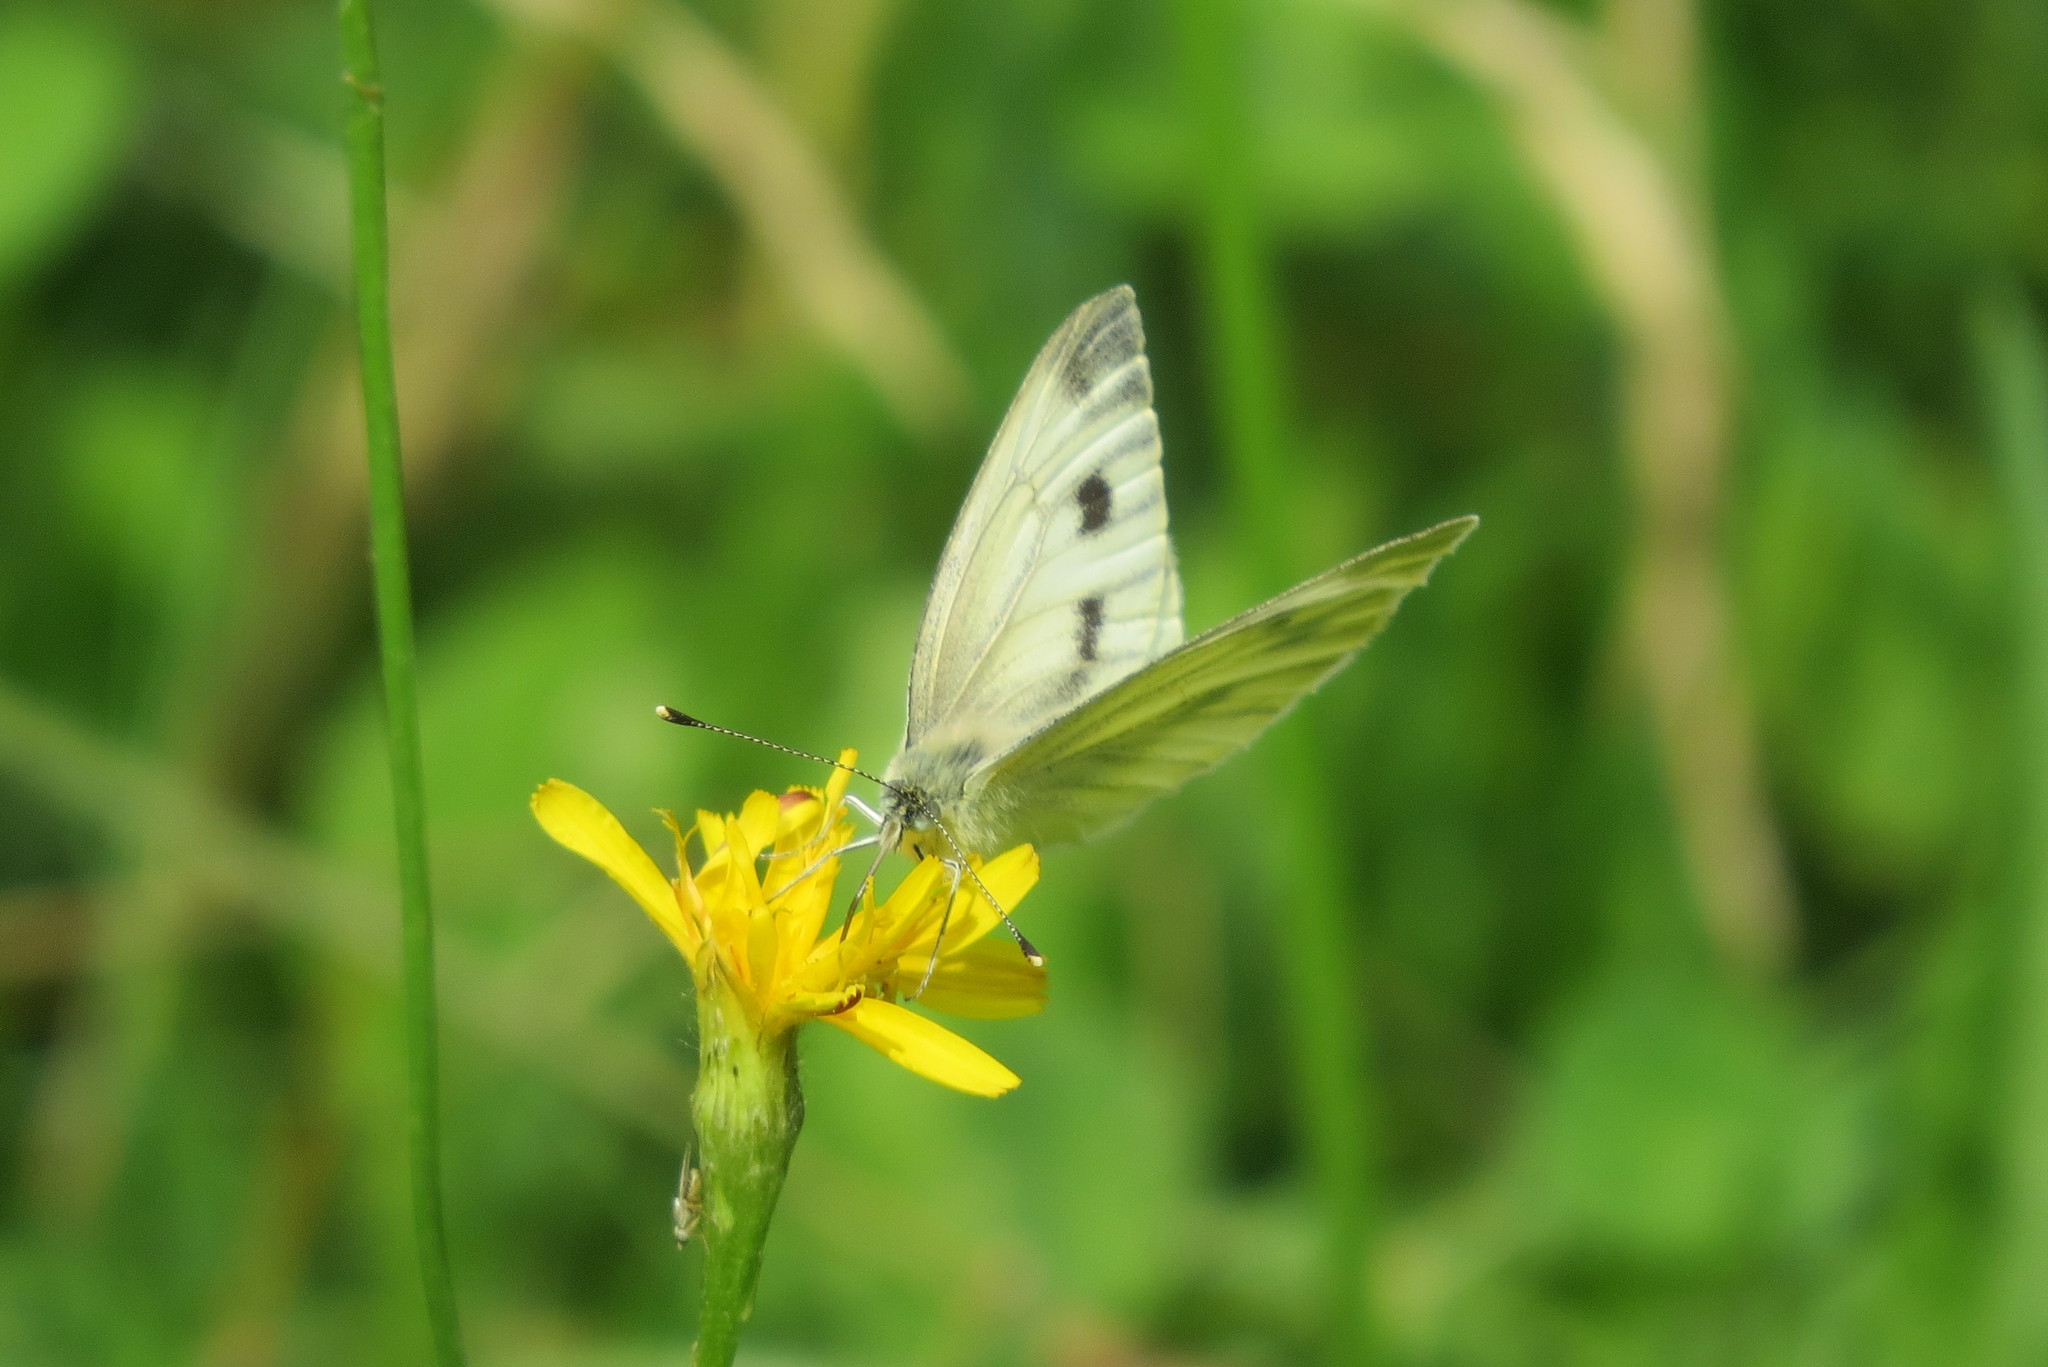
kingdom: Animalia
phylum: Arthropoda
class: Insecta
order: Lepidoptera
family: Pieridae
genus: Pieris
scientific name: Pieris napi
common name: Green-veined white
